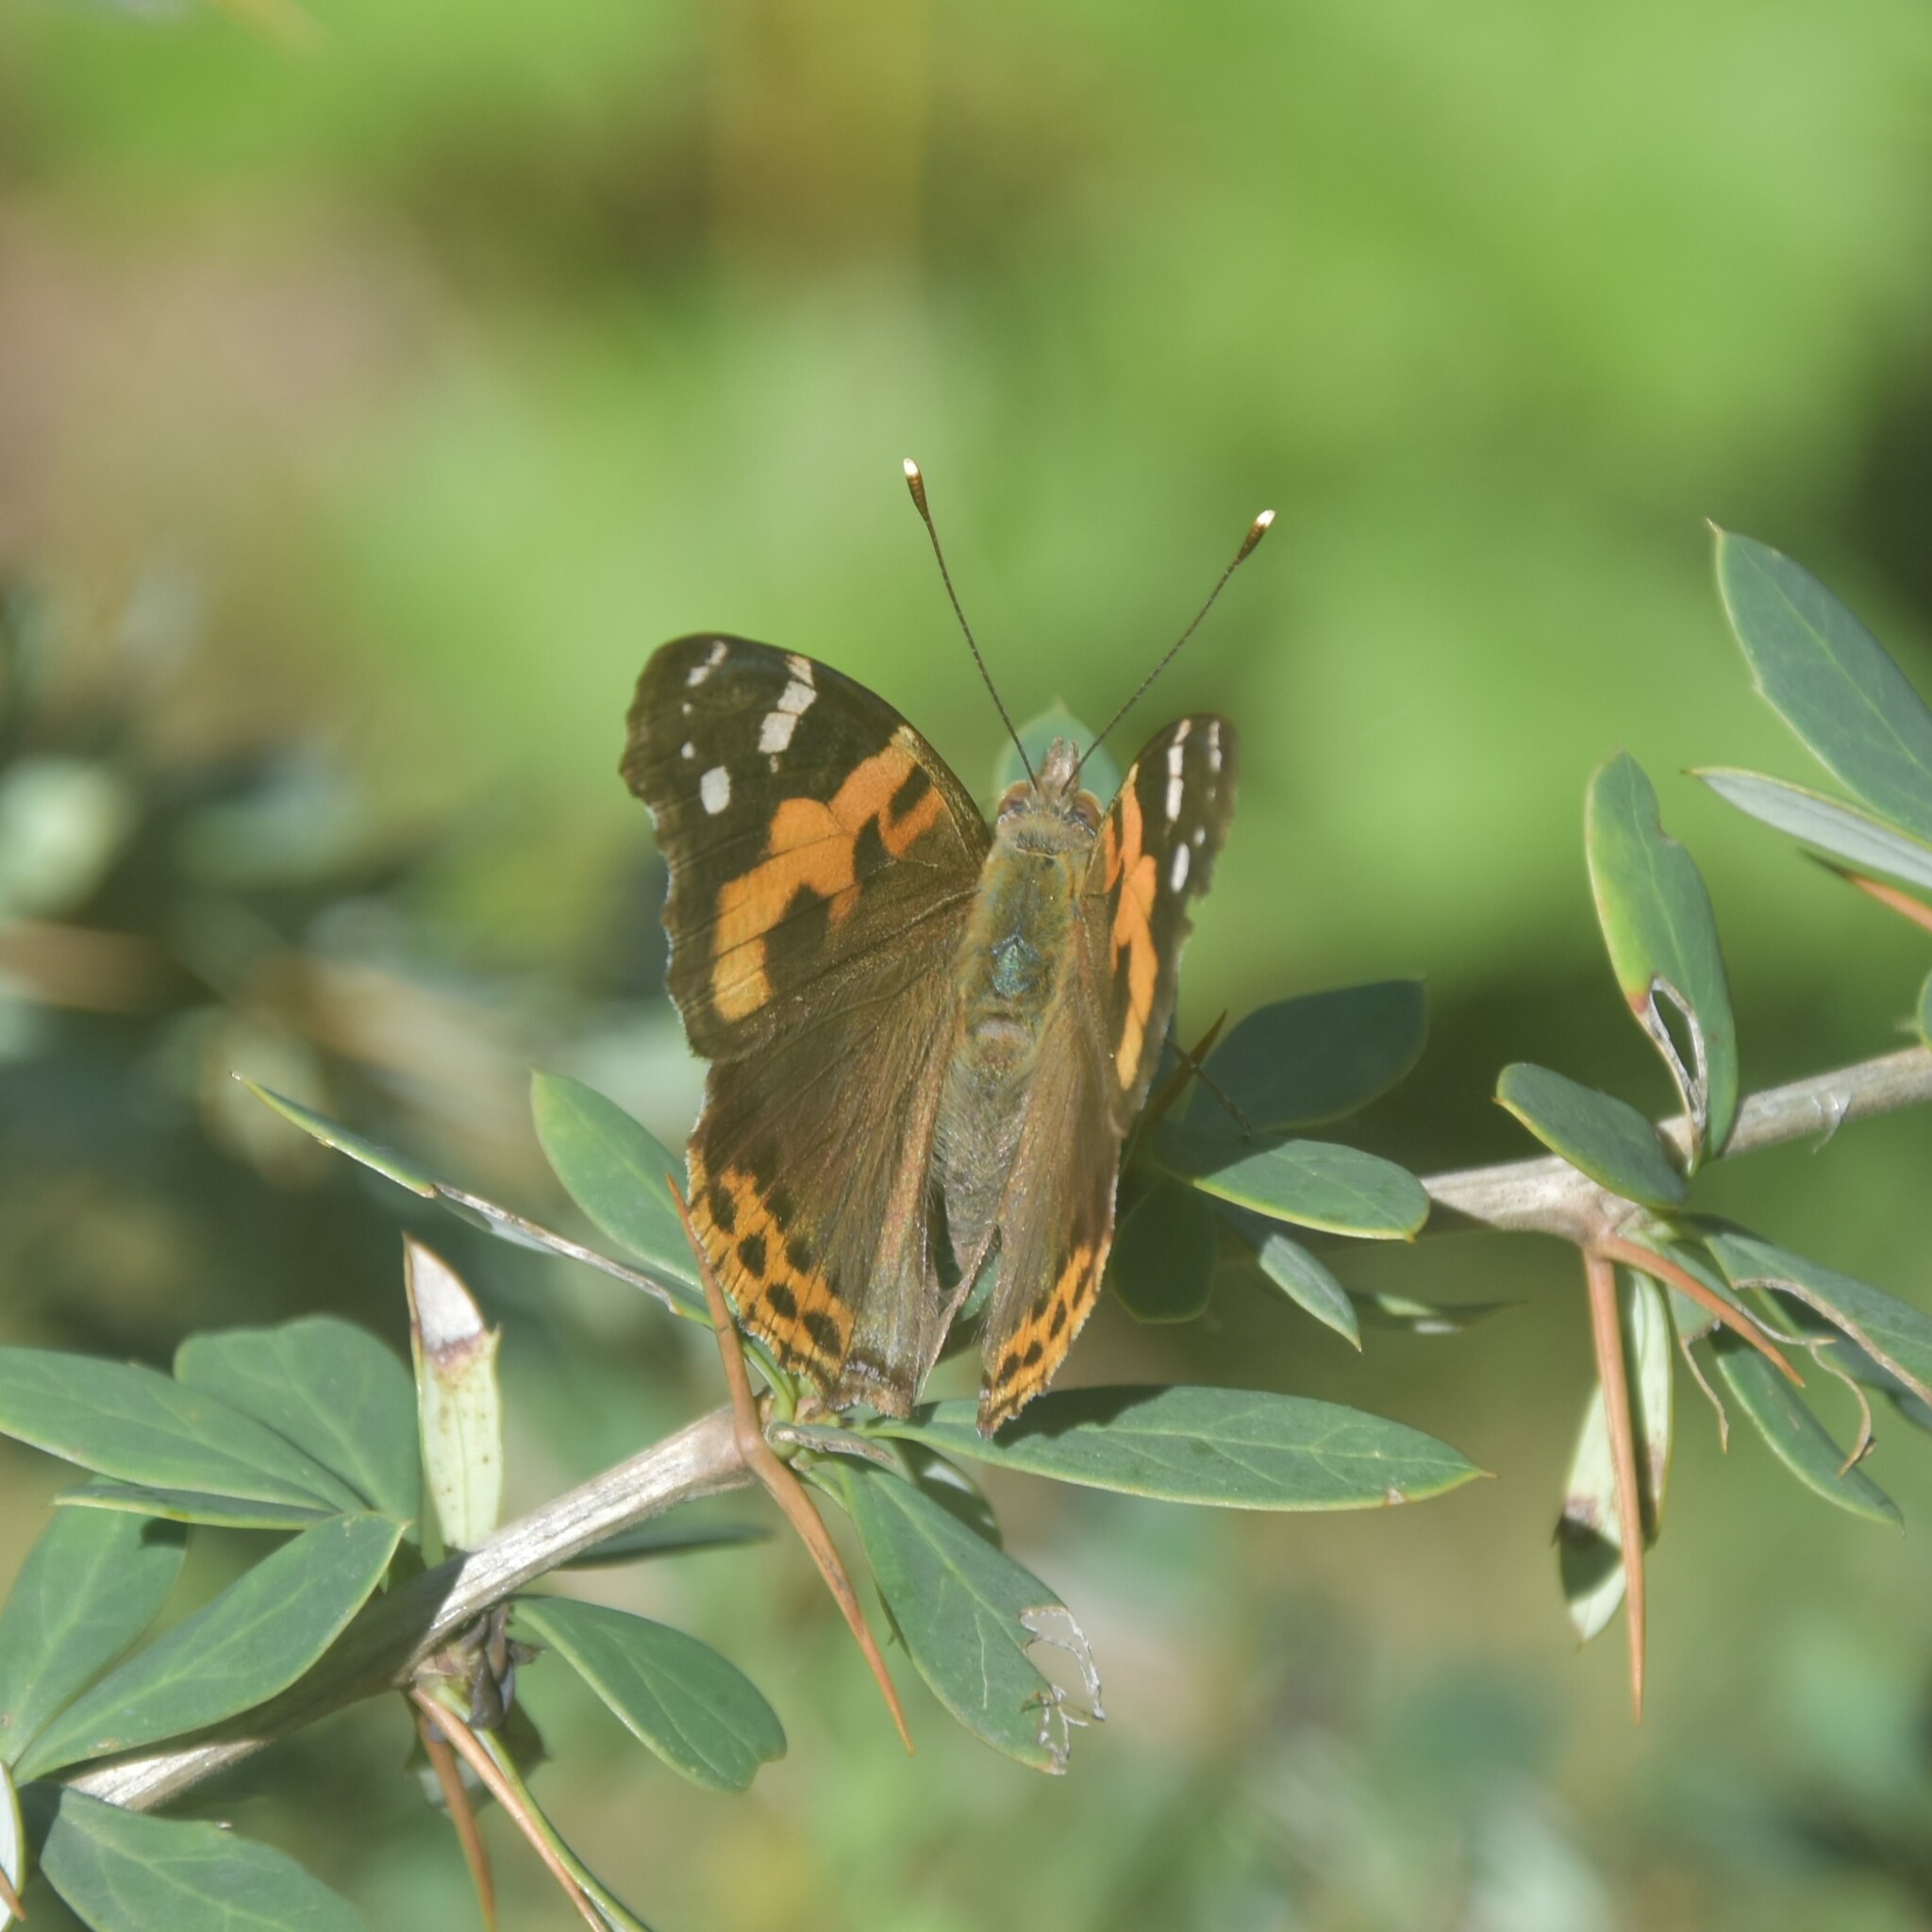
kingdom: Animalia
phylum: Arthropoda
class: Insecta
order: Lepidoptera
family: Nymphalidae
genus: Vanessa
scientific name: Vanessa indica
